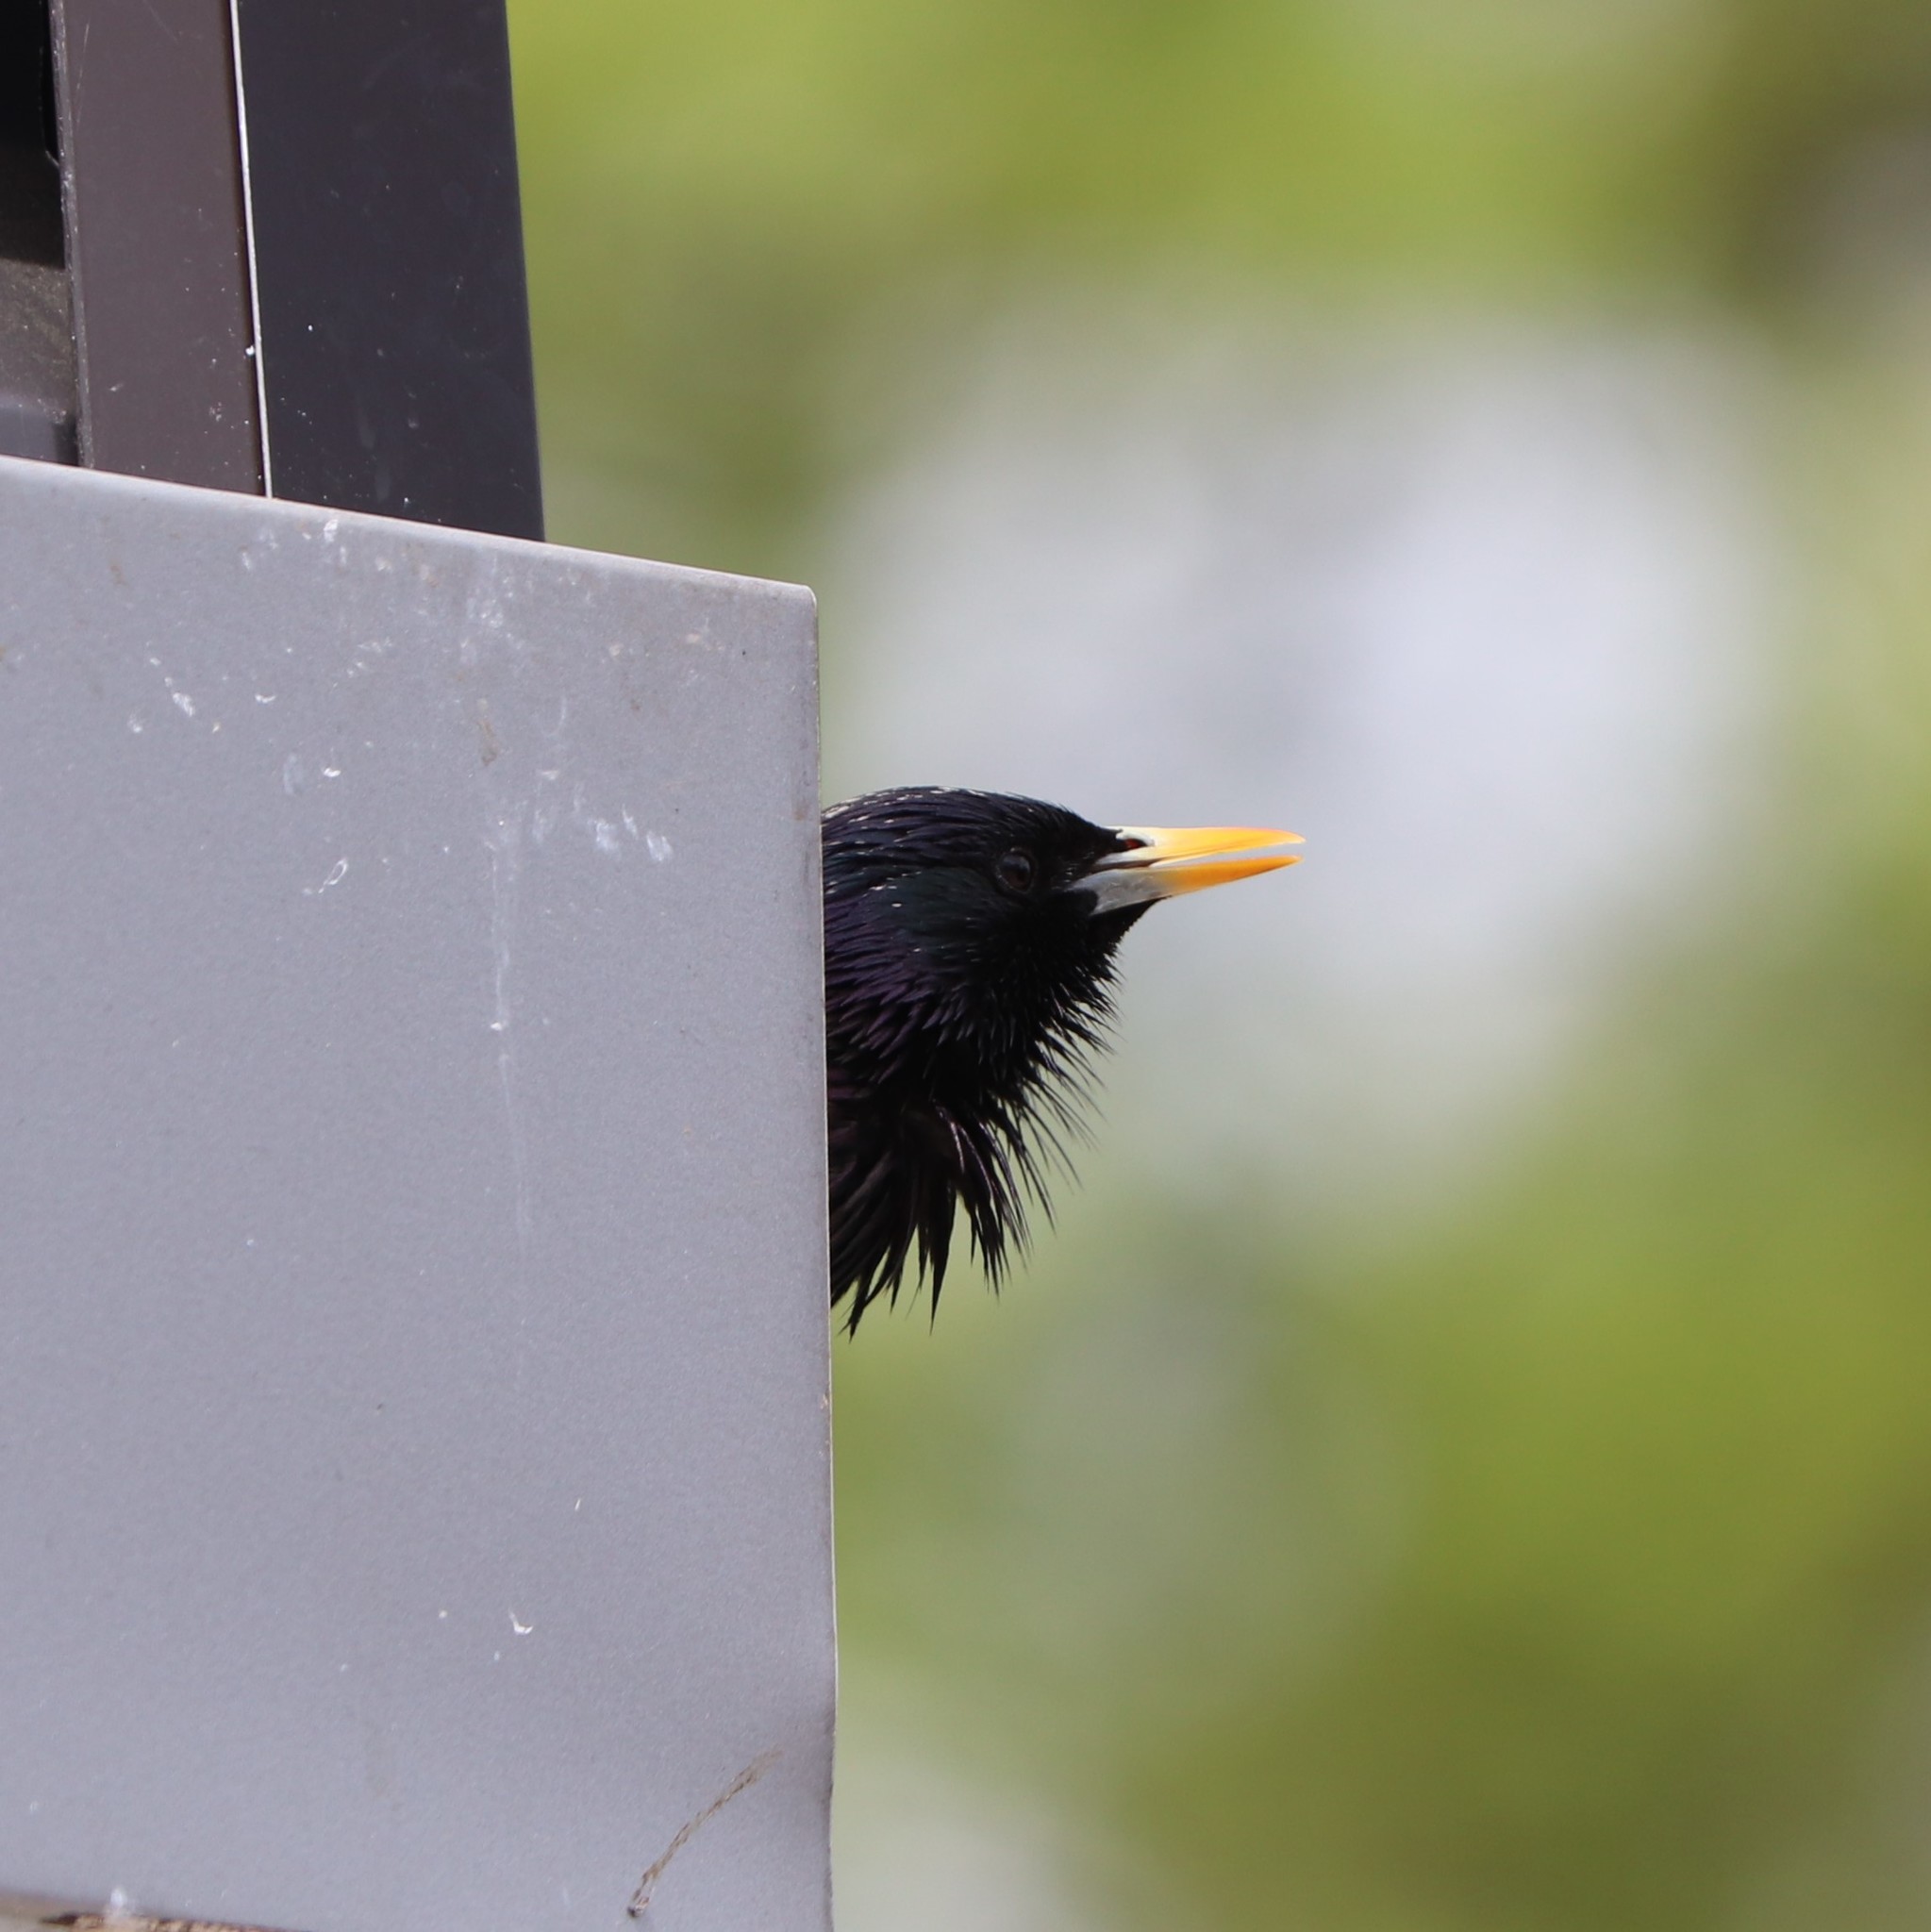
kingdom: Animalia
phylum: Chordata
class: Aves
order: Passeriformes
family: Sturnidae
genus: Sturnus
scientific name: Sturnus vulgaris
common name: Common starling
